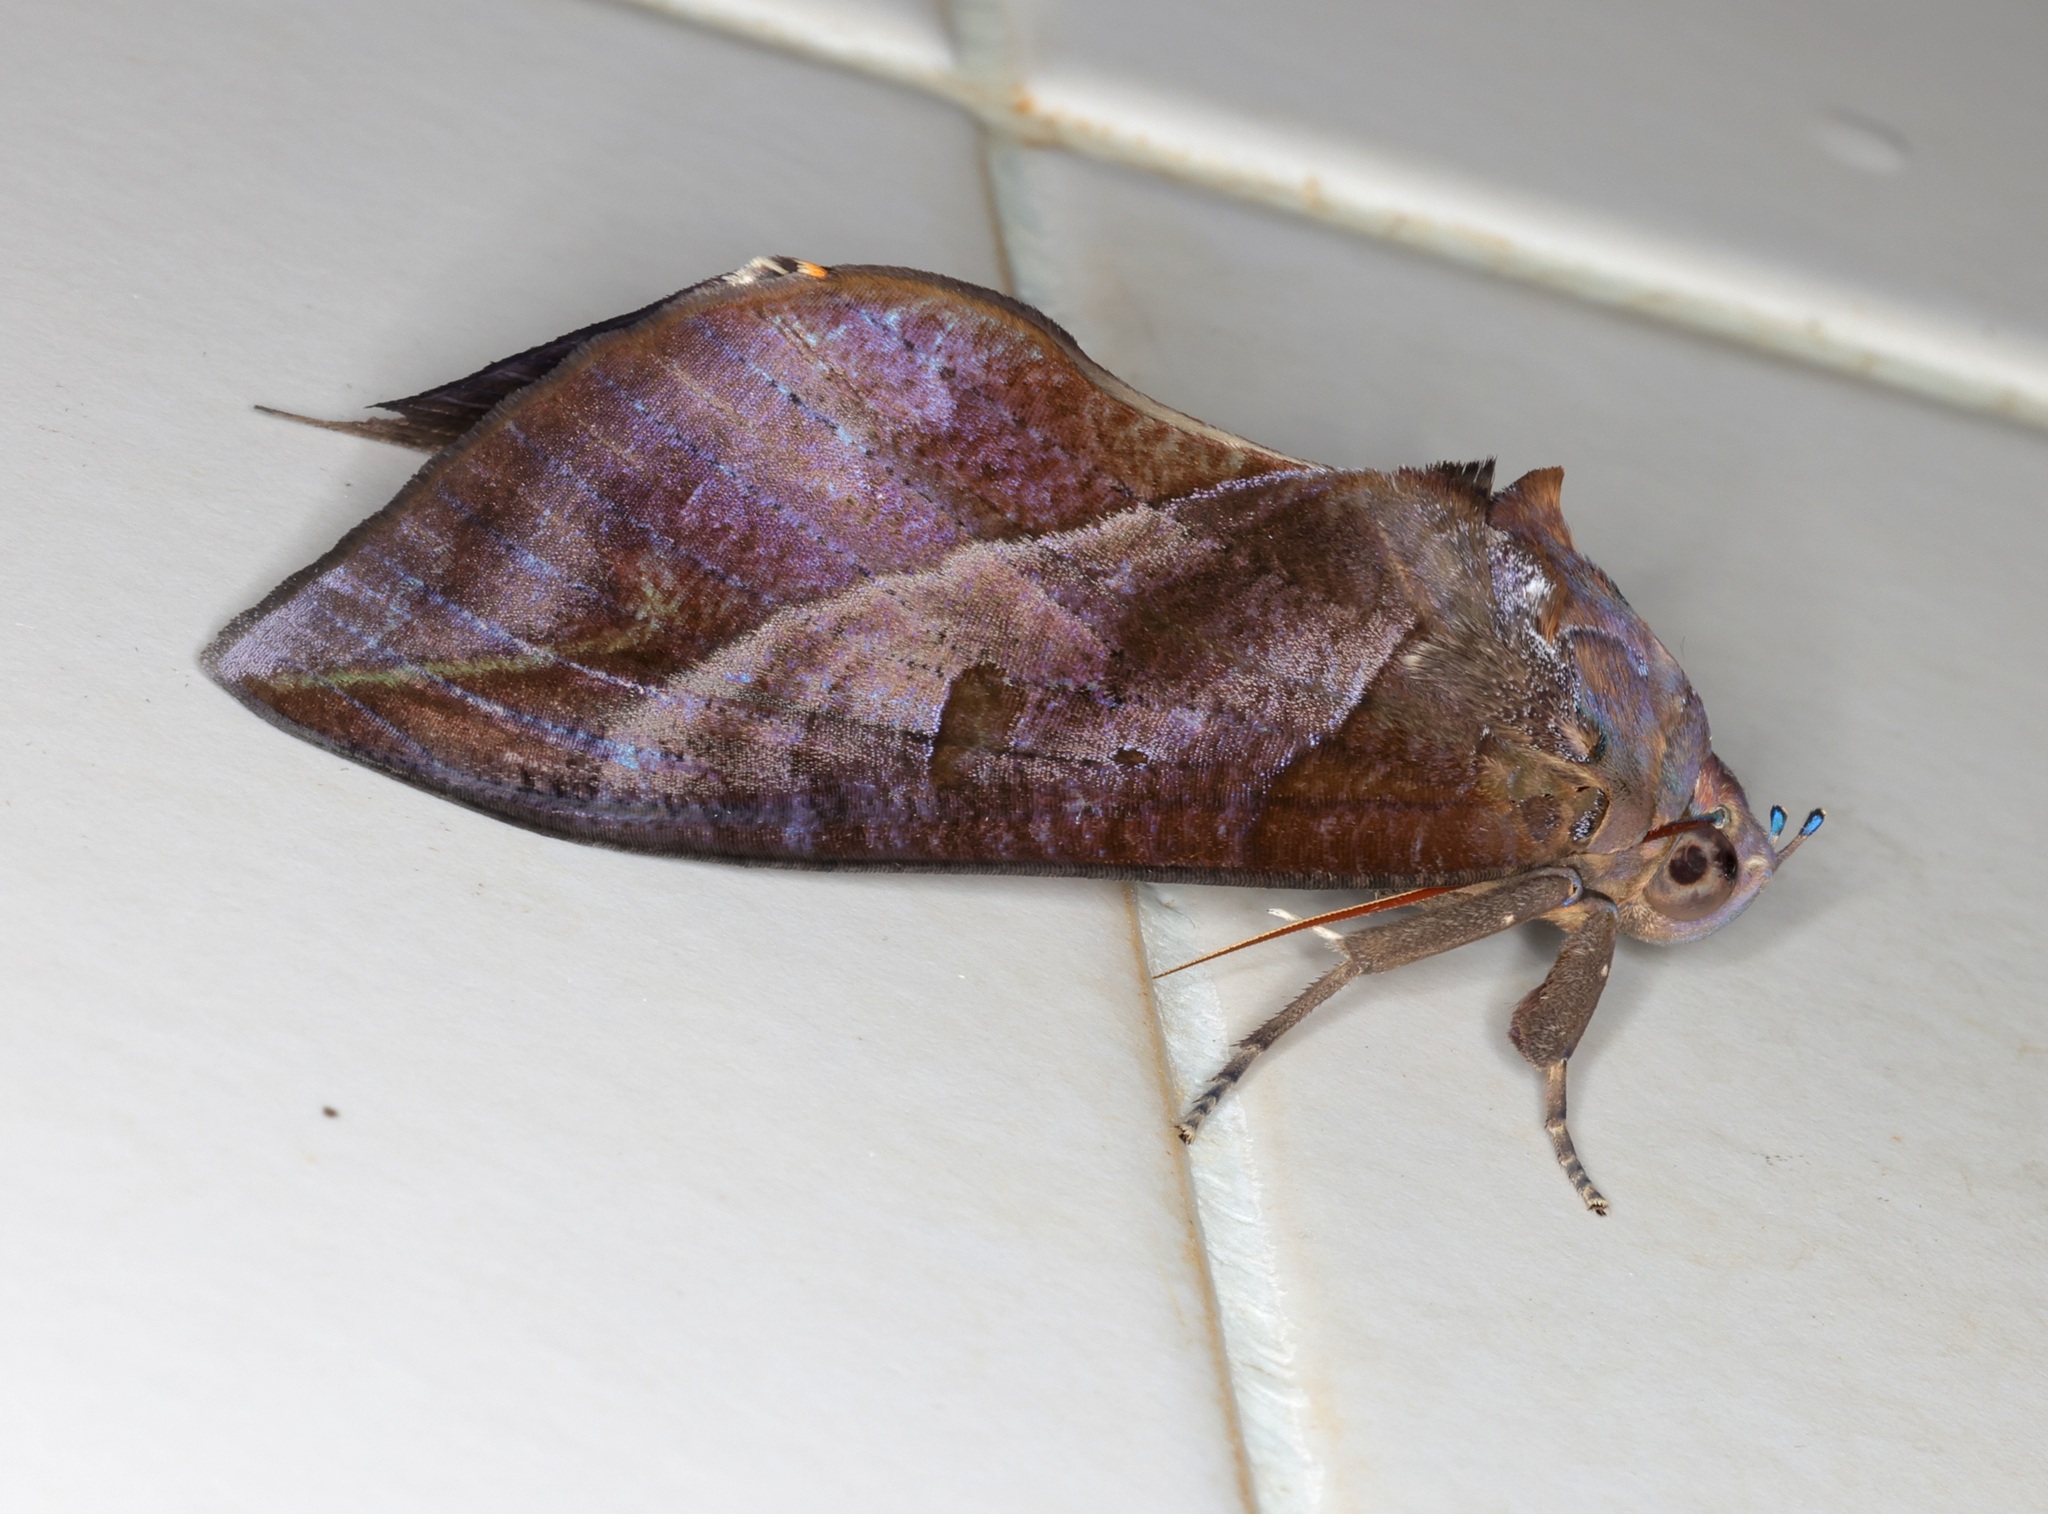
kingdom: Animalia
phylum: Arthropoda
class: Insecta
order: Lepidoptera
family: Erebidae
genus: Eudocima
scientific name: Eudocima phalonia
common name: Wasp
